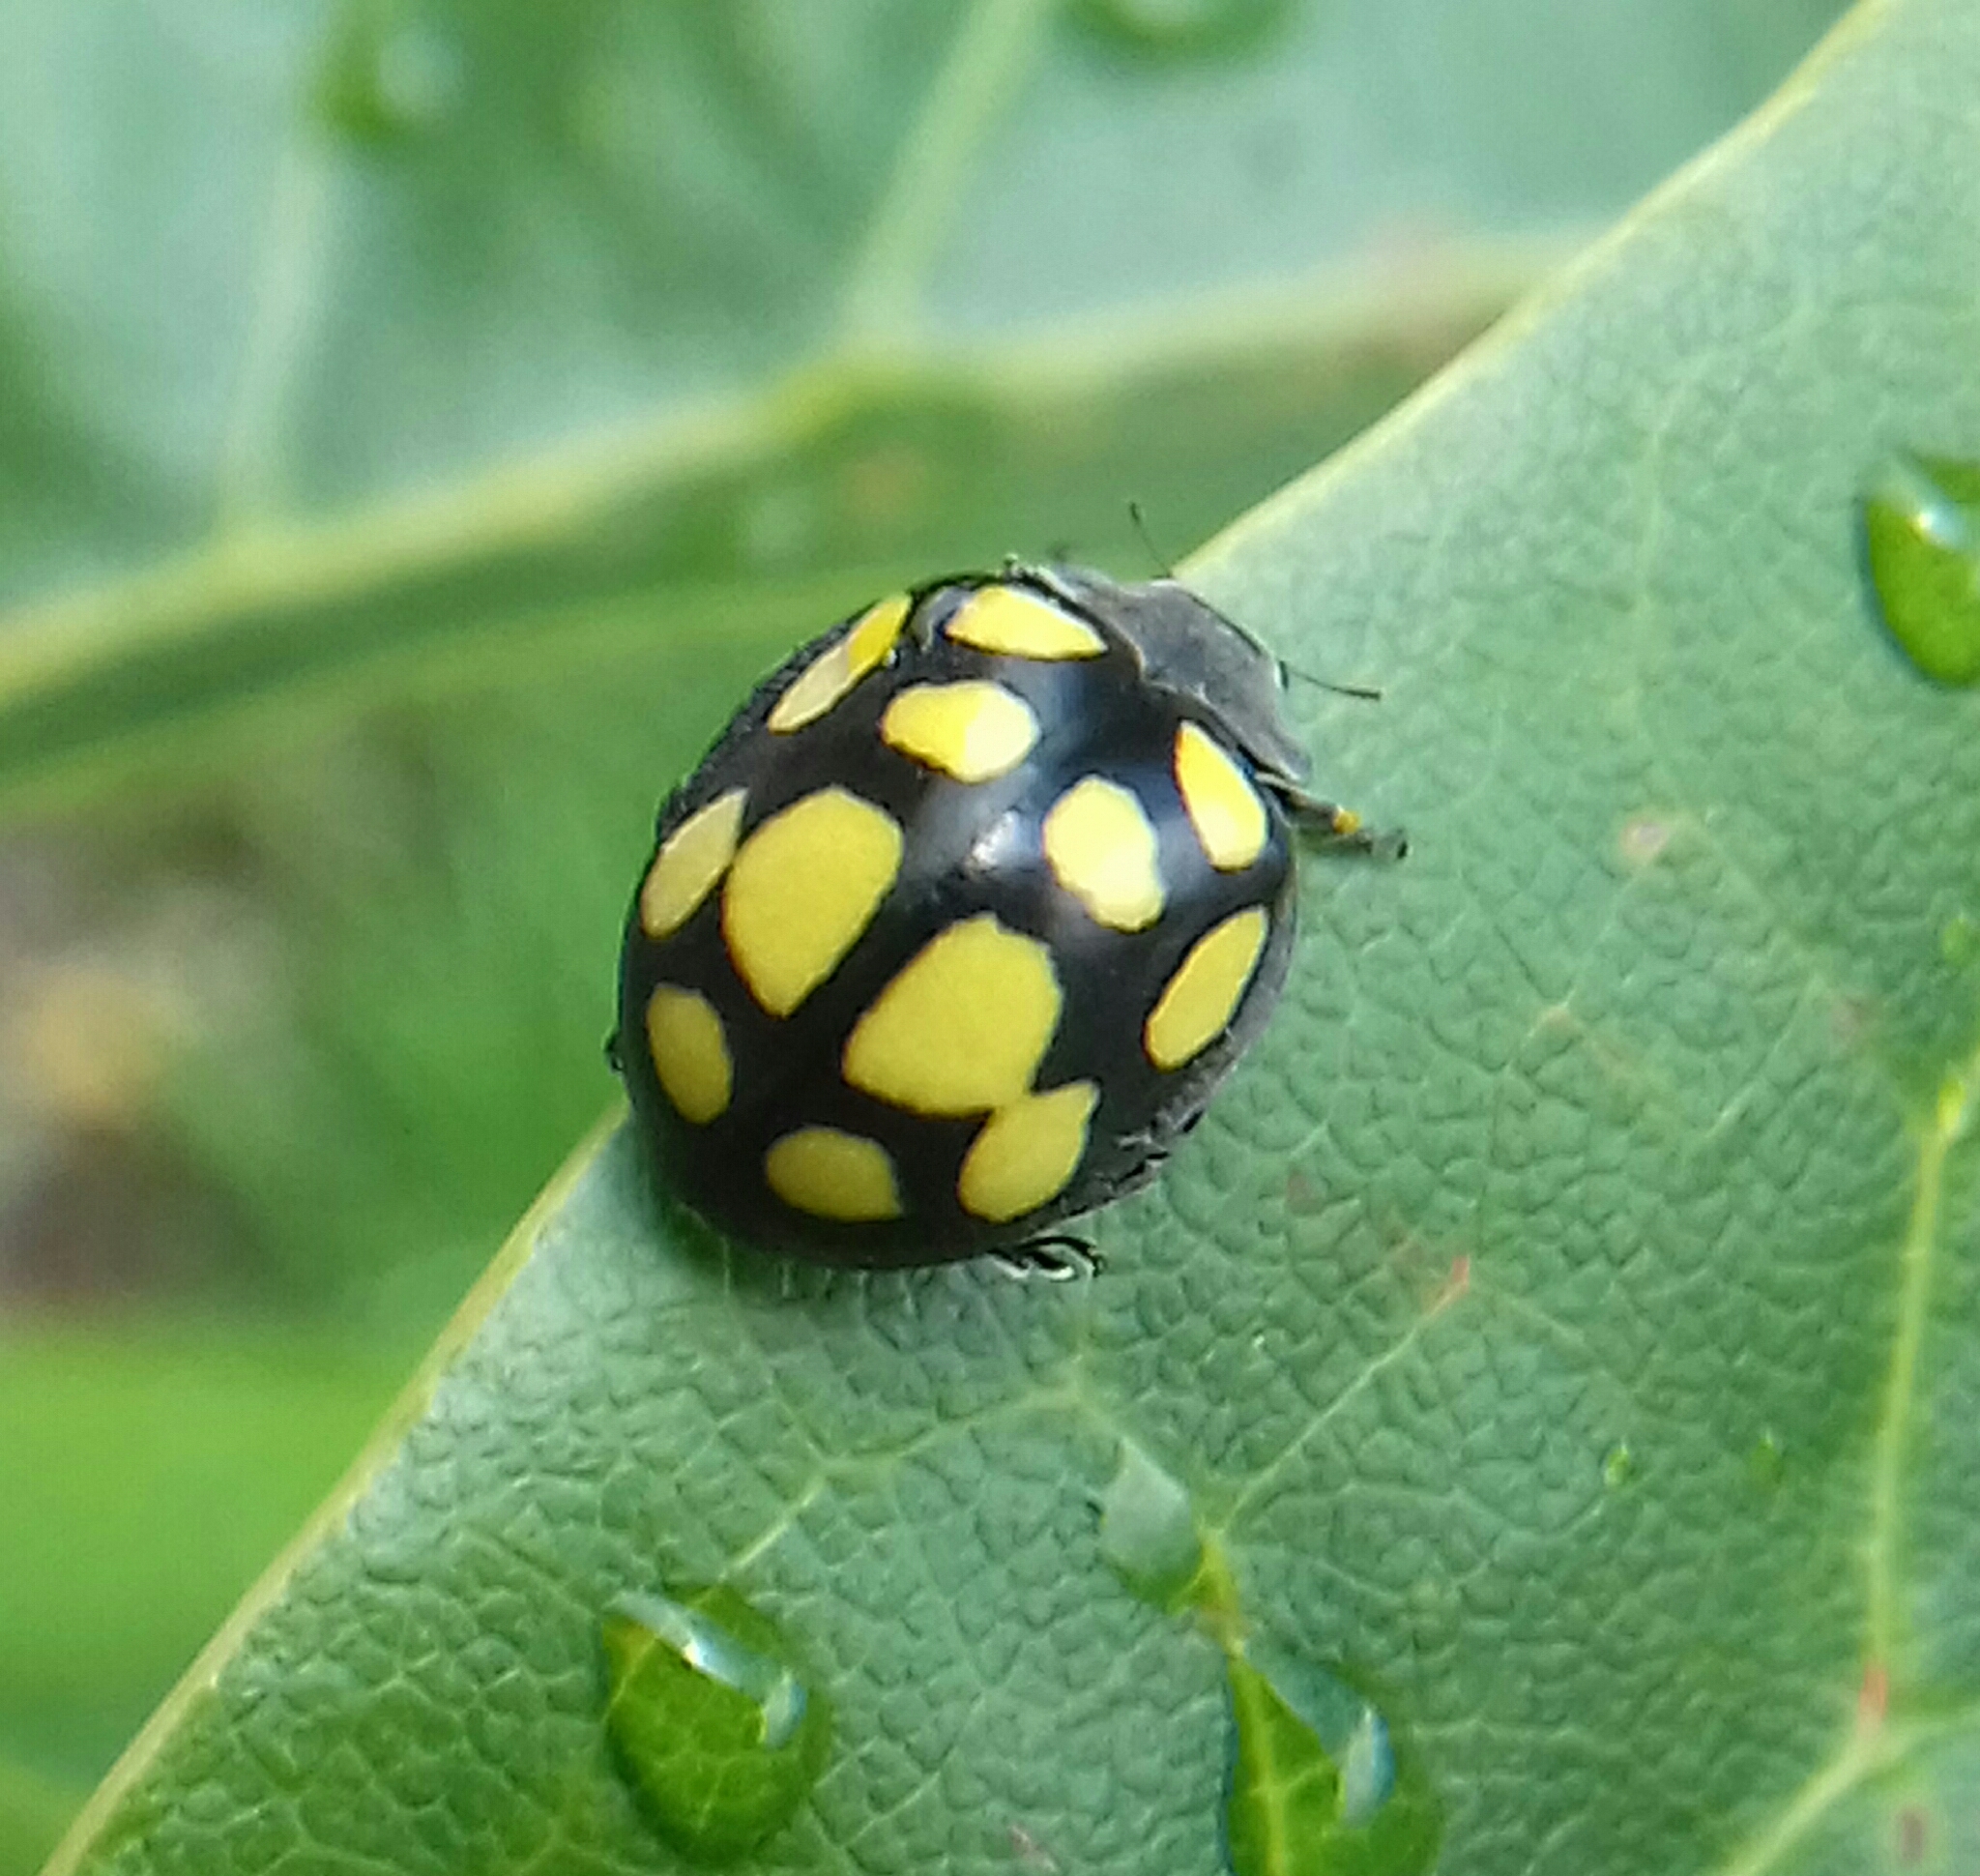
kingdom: Animalia
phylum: Arthropoda
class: Insecta
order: Coleoptera
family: Coccinellidae
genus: Epilachna
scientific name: Epilachna
